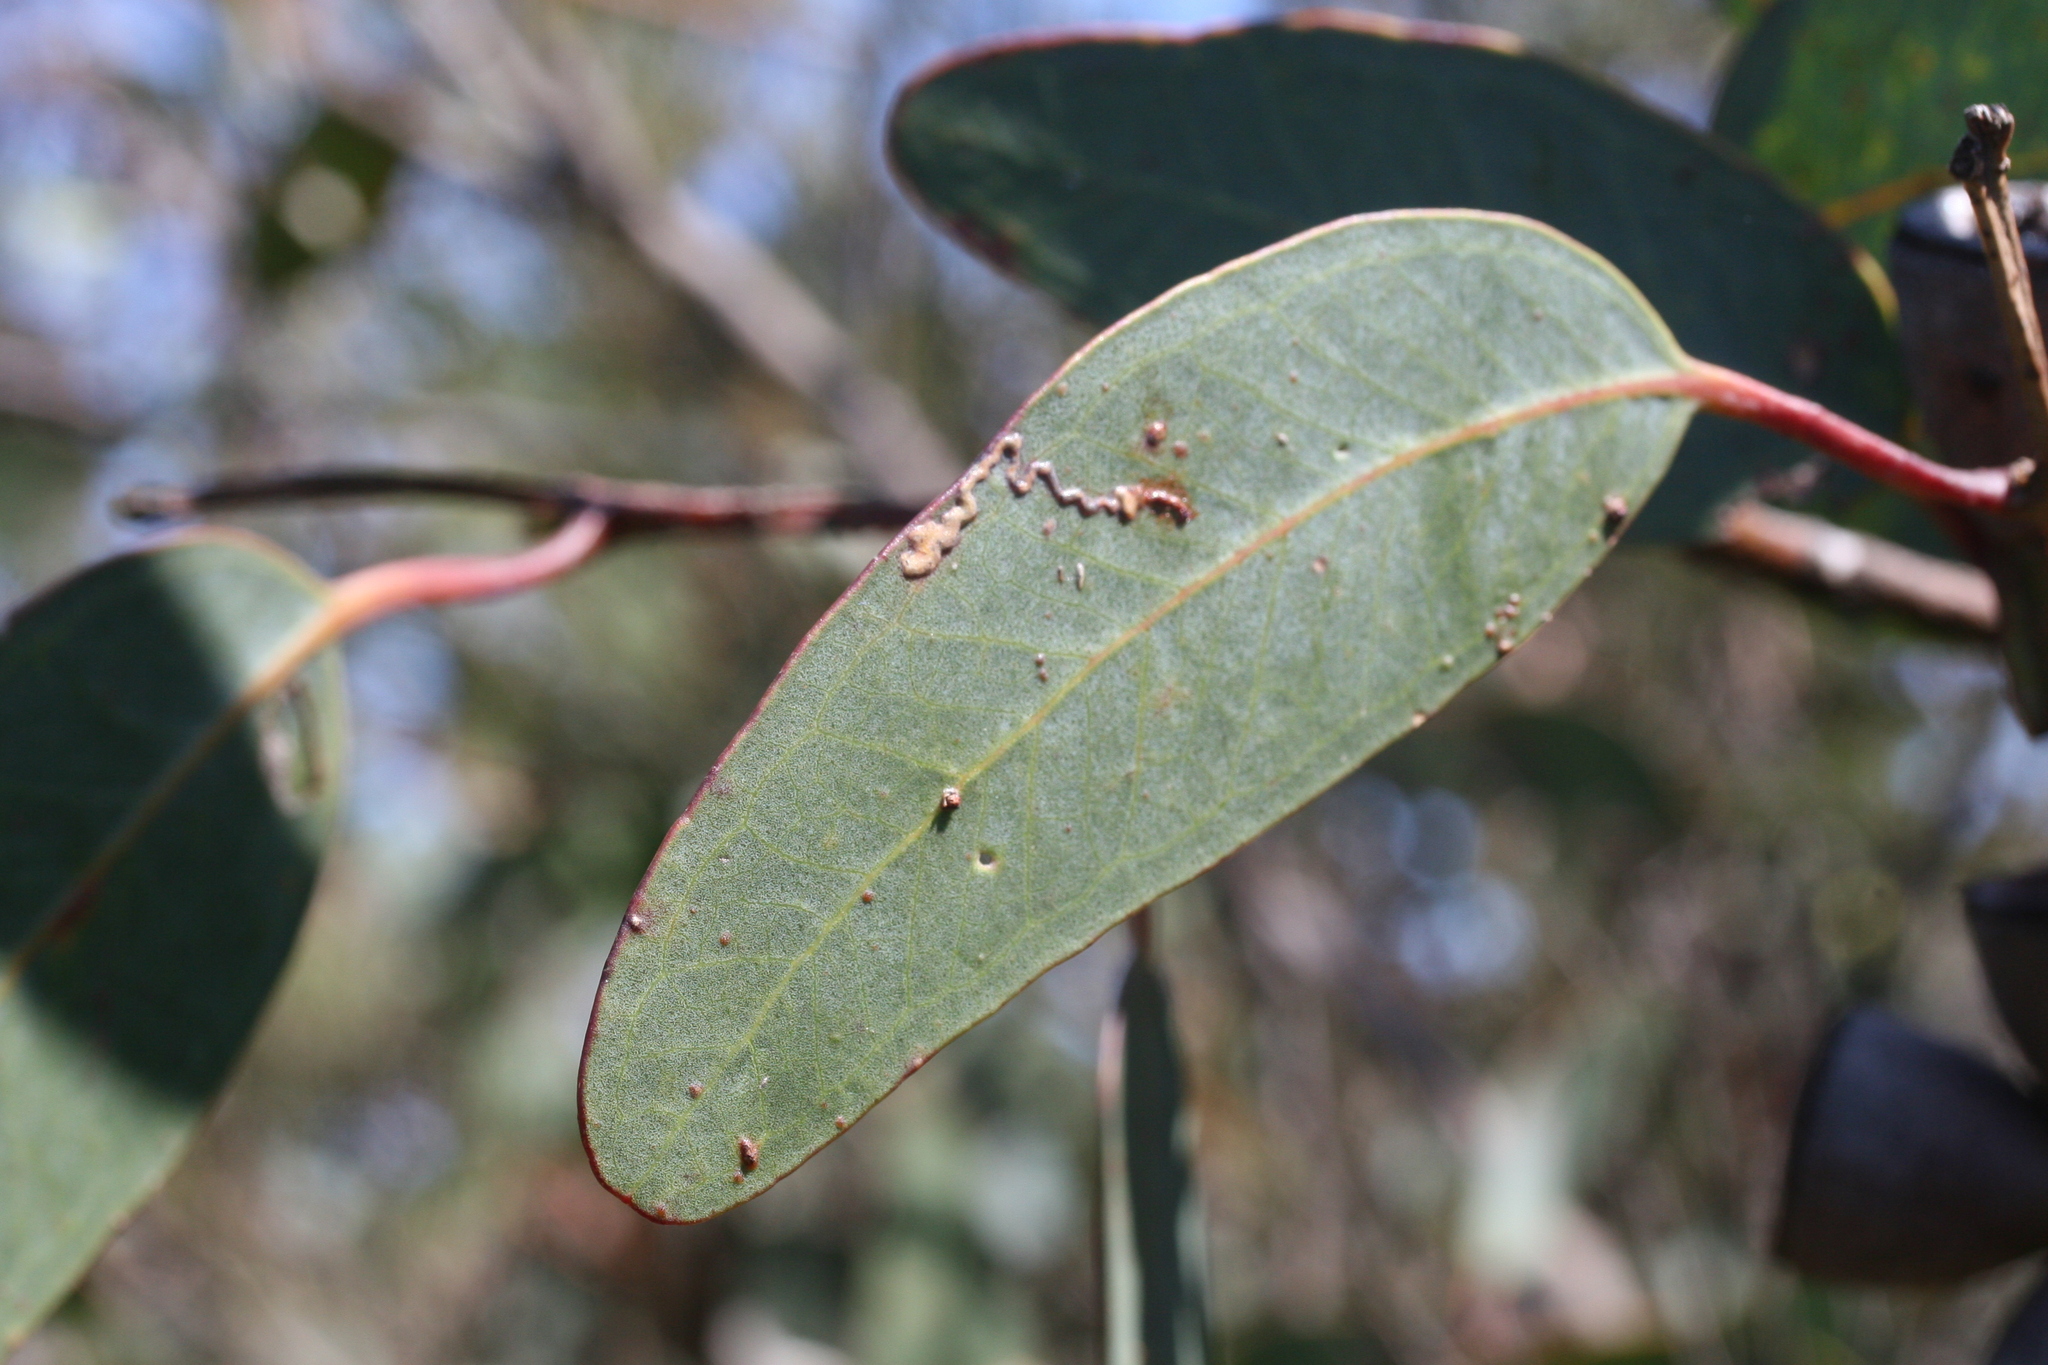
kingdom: Plantae
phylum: Tracheophyta
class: Magnoliopsida
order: Myrtales
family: Myrtaceae
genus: Eucalyptus
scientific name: Eucalyptus preissiana
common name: Stirling range mallee
